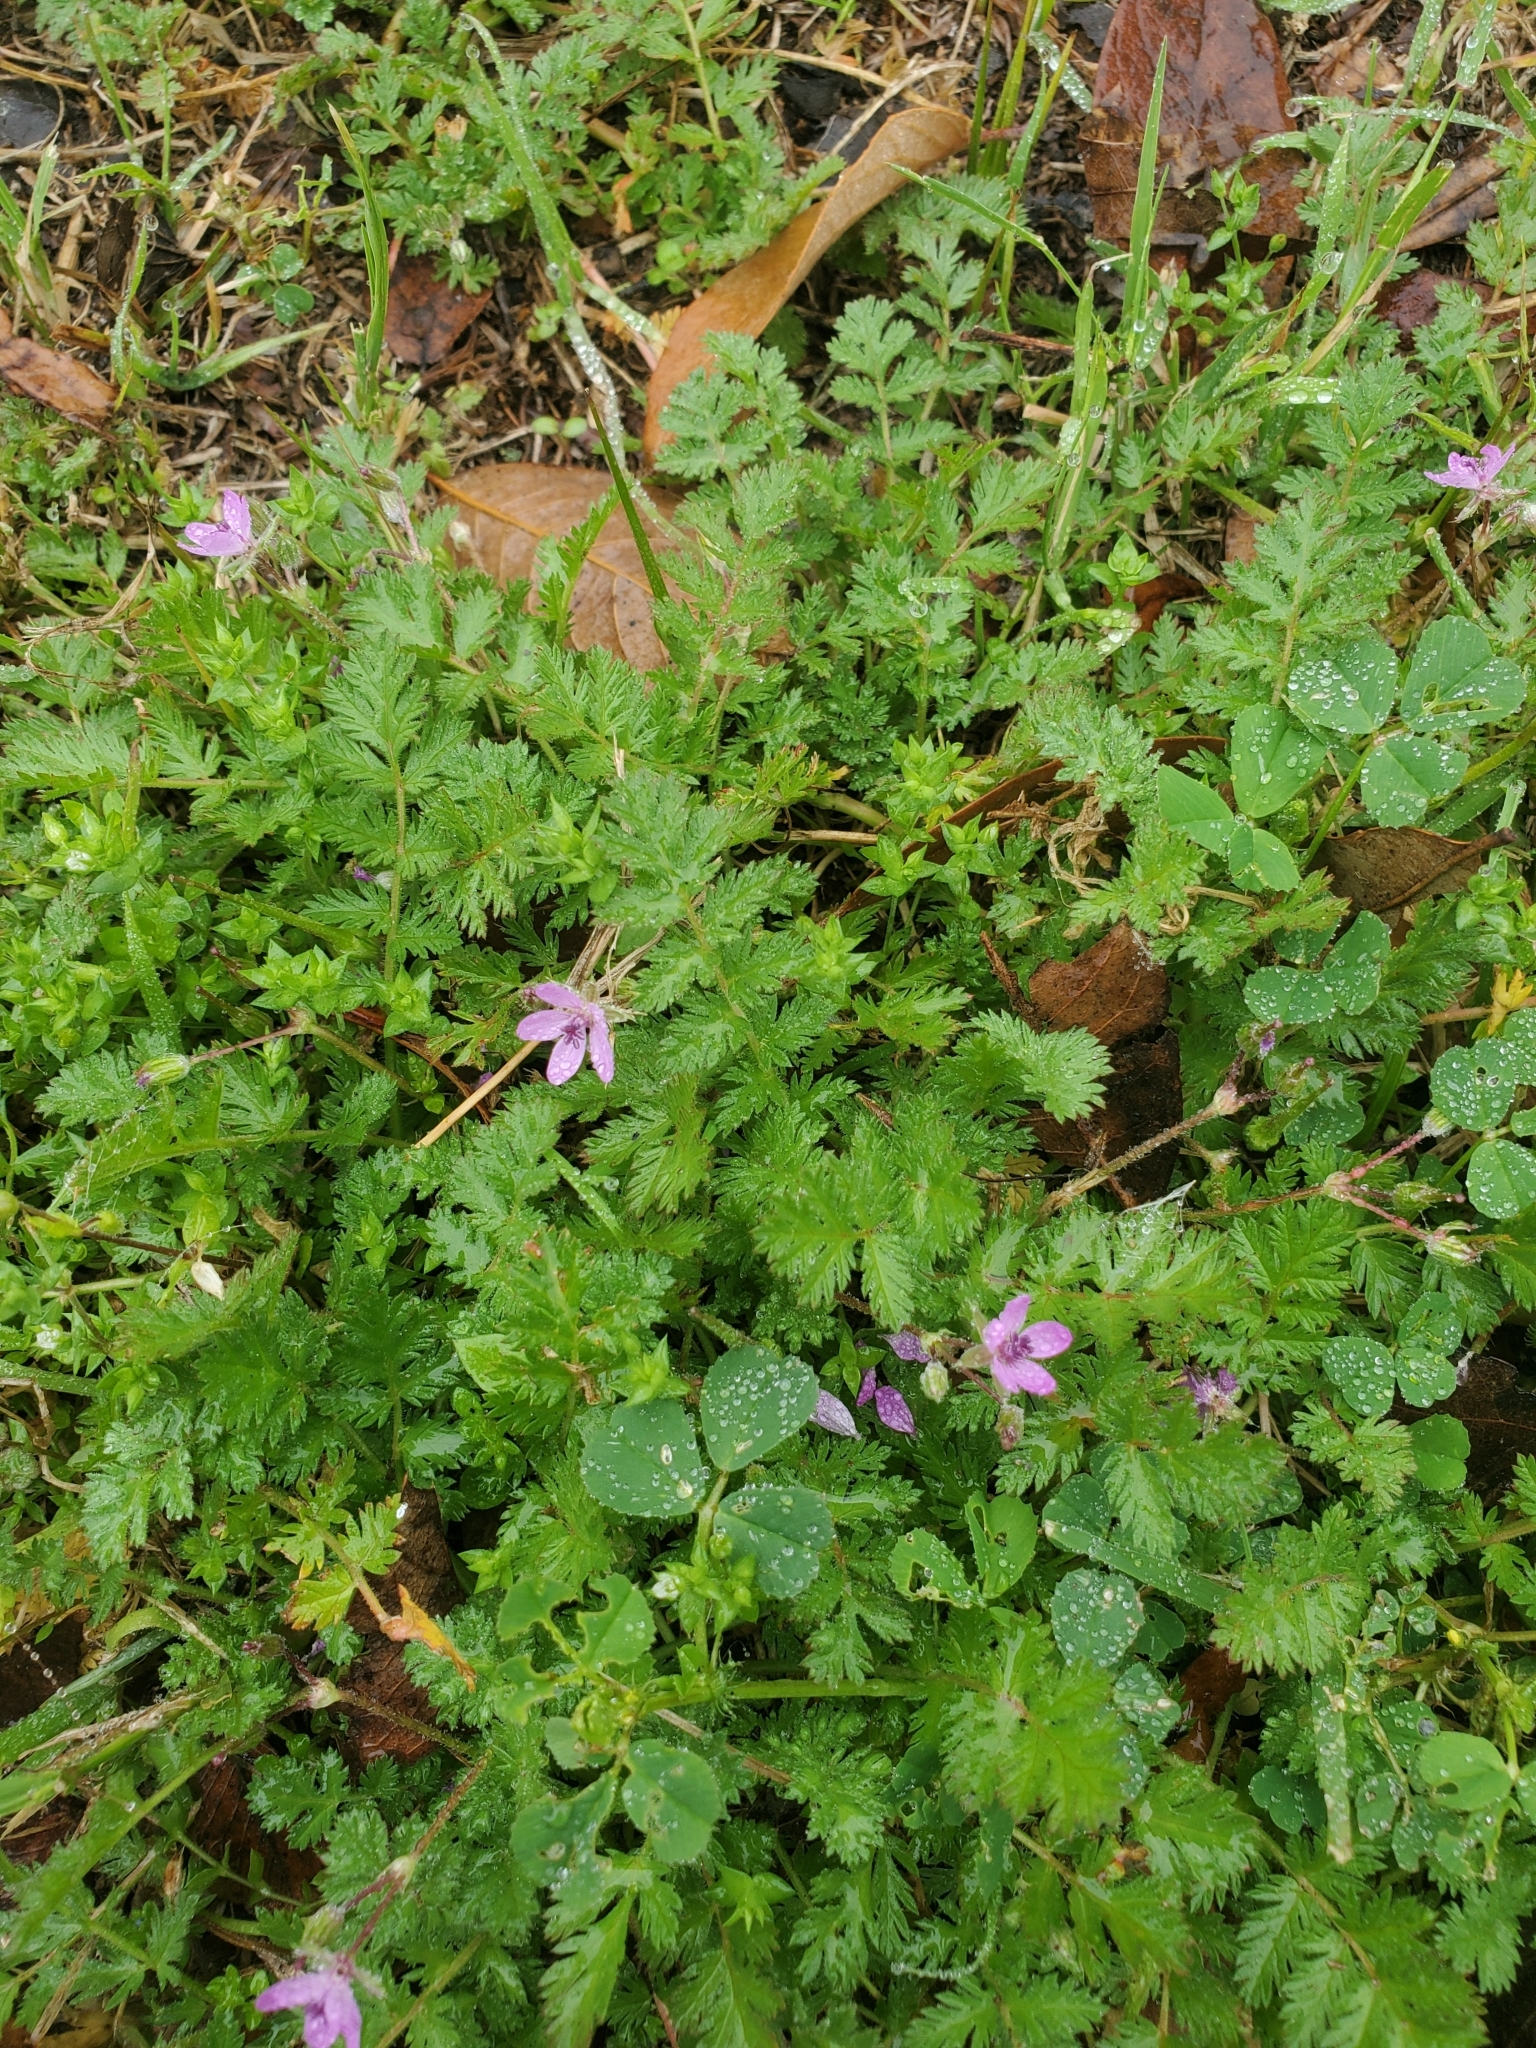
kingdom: Plantae
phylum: Tracheophyta
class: Magnoliopsida
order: Geraniales
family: Geraniaceae
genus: Erodium
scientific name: Erodium cicutarium
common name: Common stork's-bill
